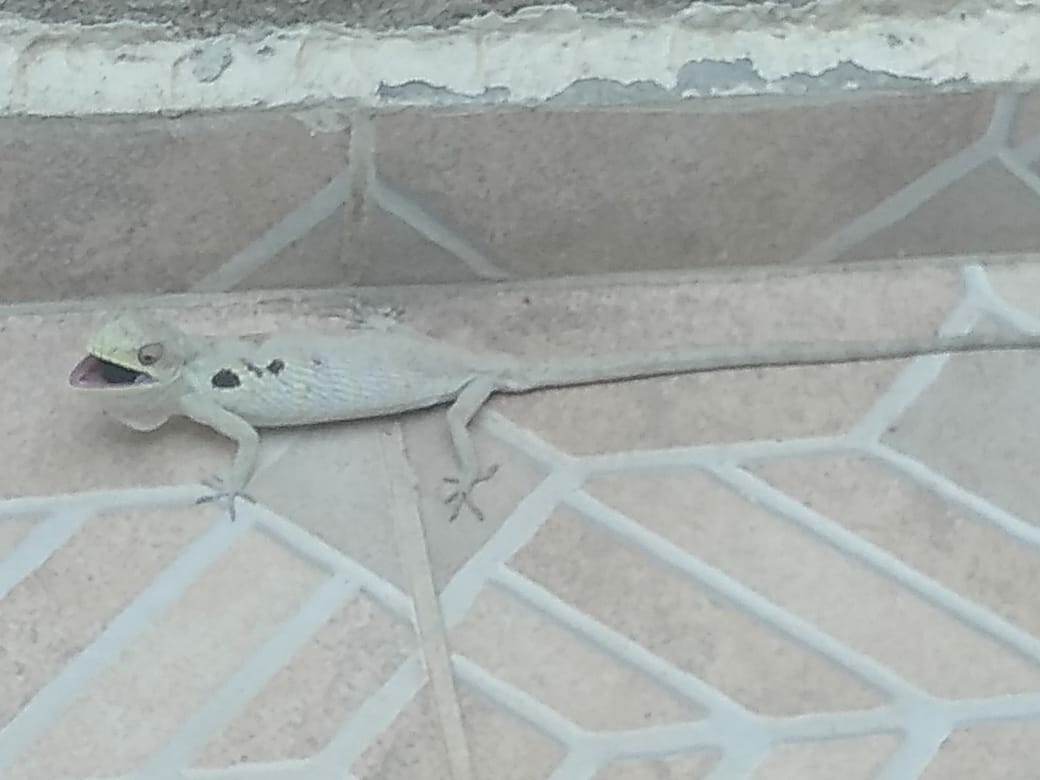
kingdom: Animalia
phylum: Chordata
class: Squamata
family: Polychrotidae
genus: Polychrus
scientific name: Polychrus acutirostris
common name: Brazilian bush anole
